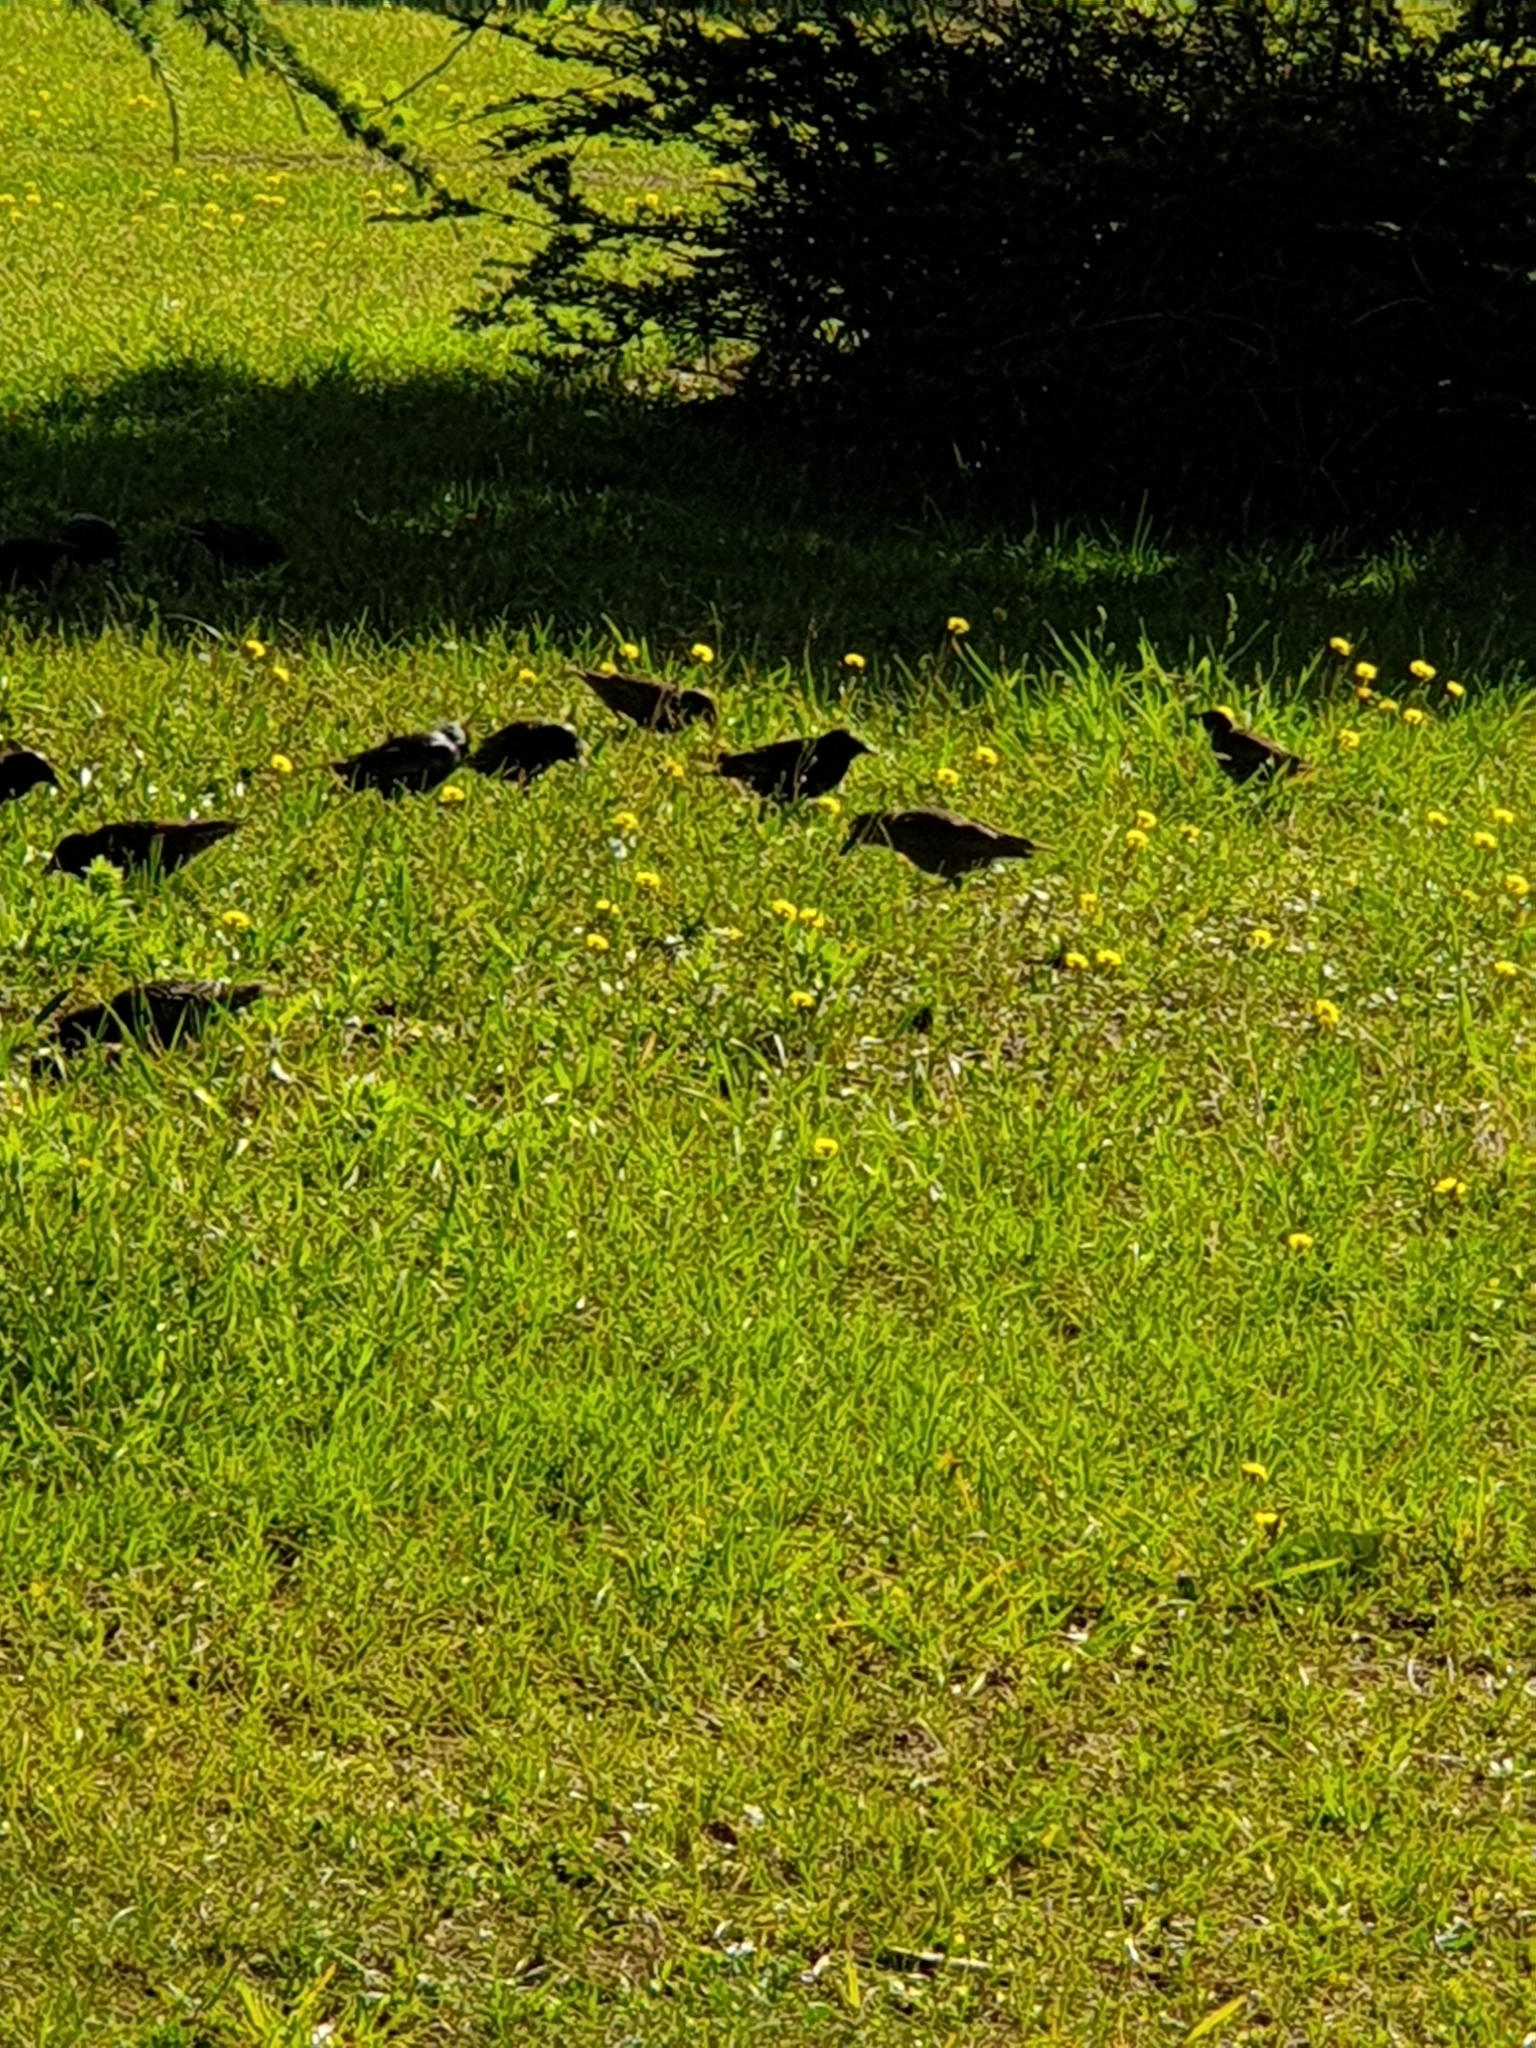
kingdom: Animalia
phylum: Chordata
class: Aves
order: Passeriformes
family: Sturnidae
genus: Sturnus
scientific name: Sturnus vulgaris
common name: Common starling
